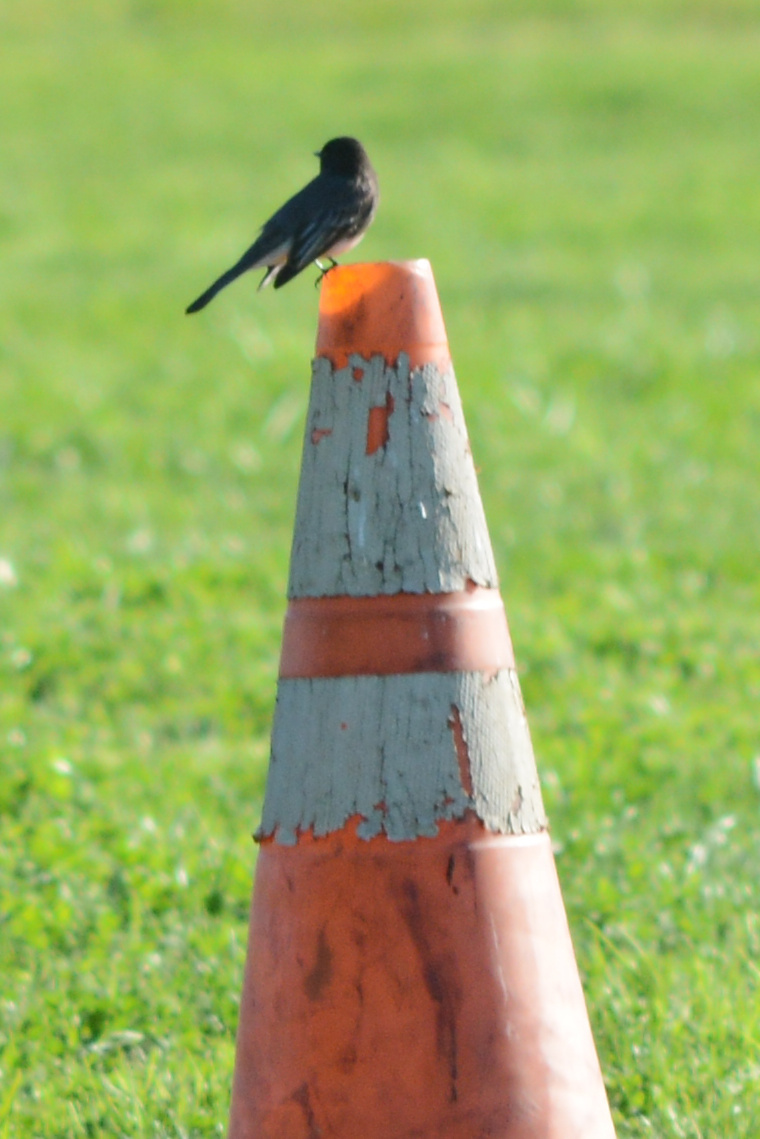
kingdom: Animalia
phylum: Chordata
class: Aves
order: Passeriformes
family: Tyrannidae
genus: Sayornis
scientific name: Sayornis nigricans
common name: Black phoebe
